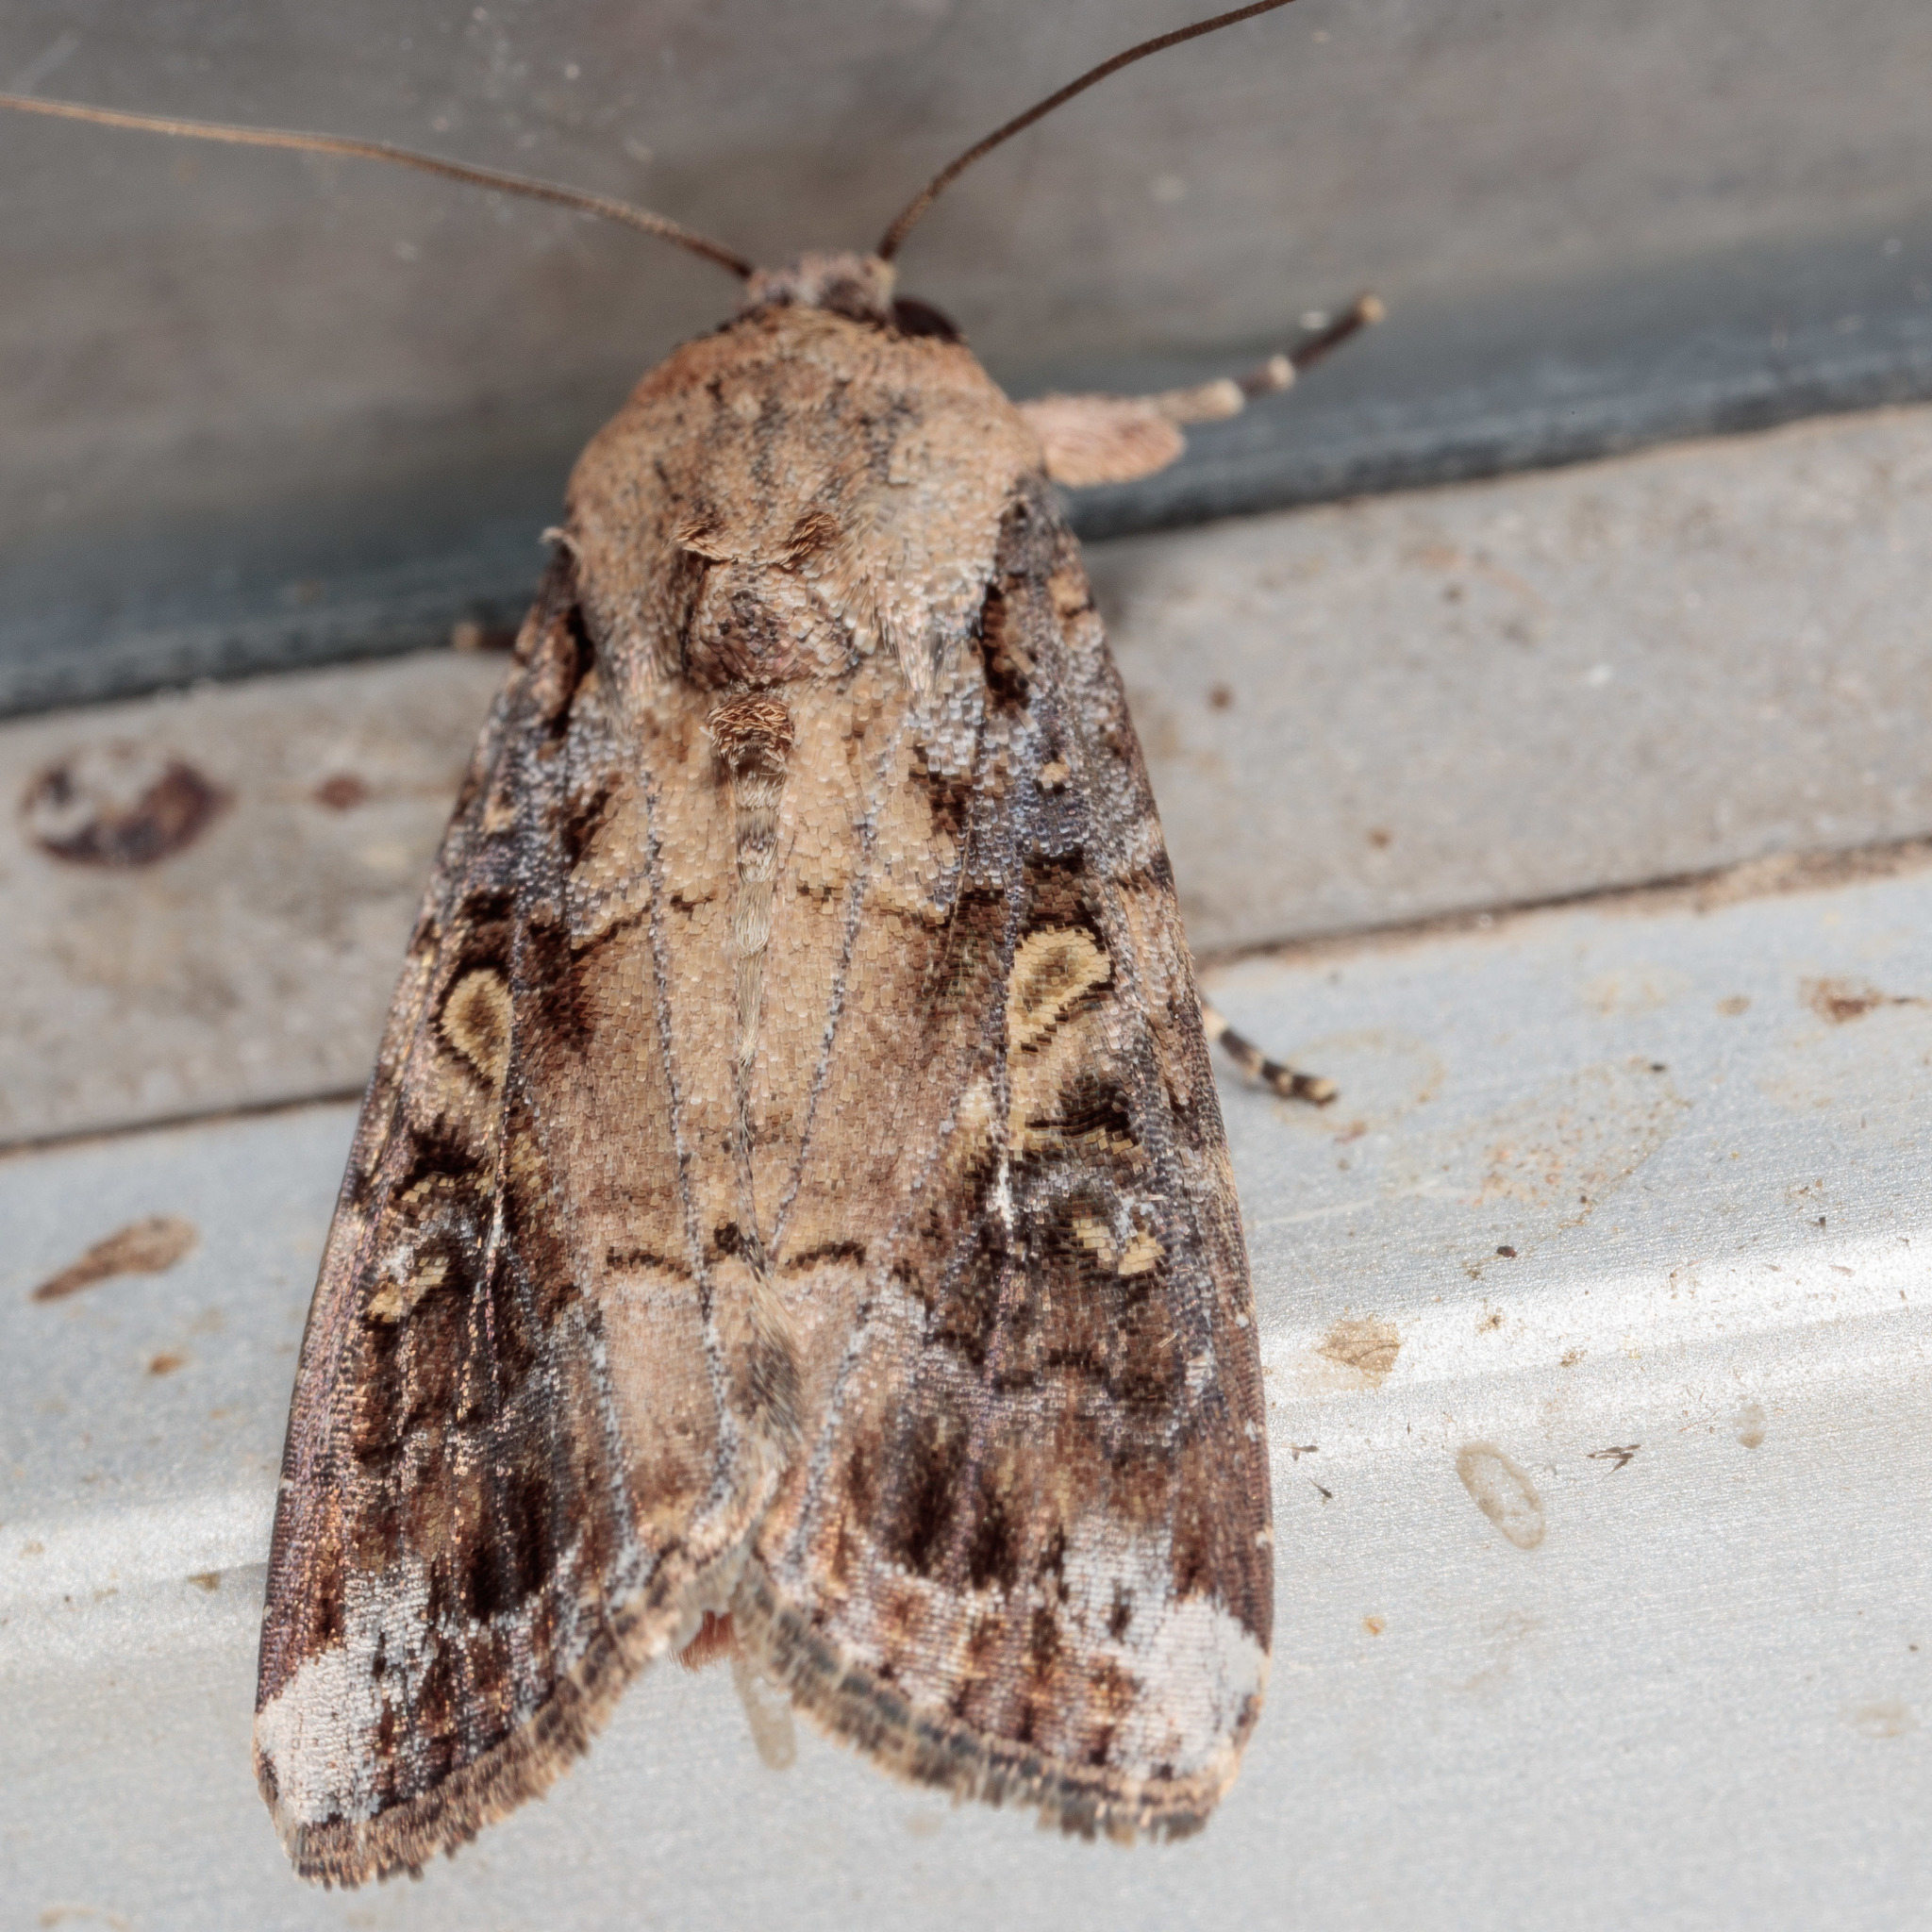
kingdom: Animalia
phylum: Arthropoda
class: Insecta
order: Lepidoptera
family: Noctuidae
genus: Spodoptera
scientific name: Spodoptera frugiperda
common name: Fall armyworm
